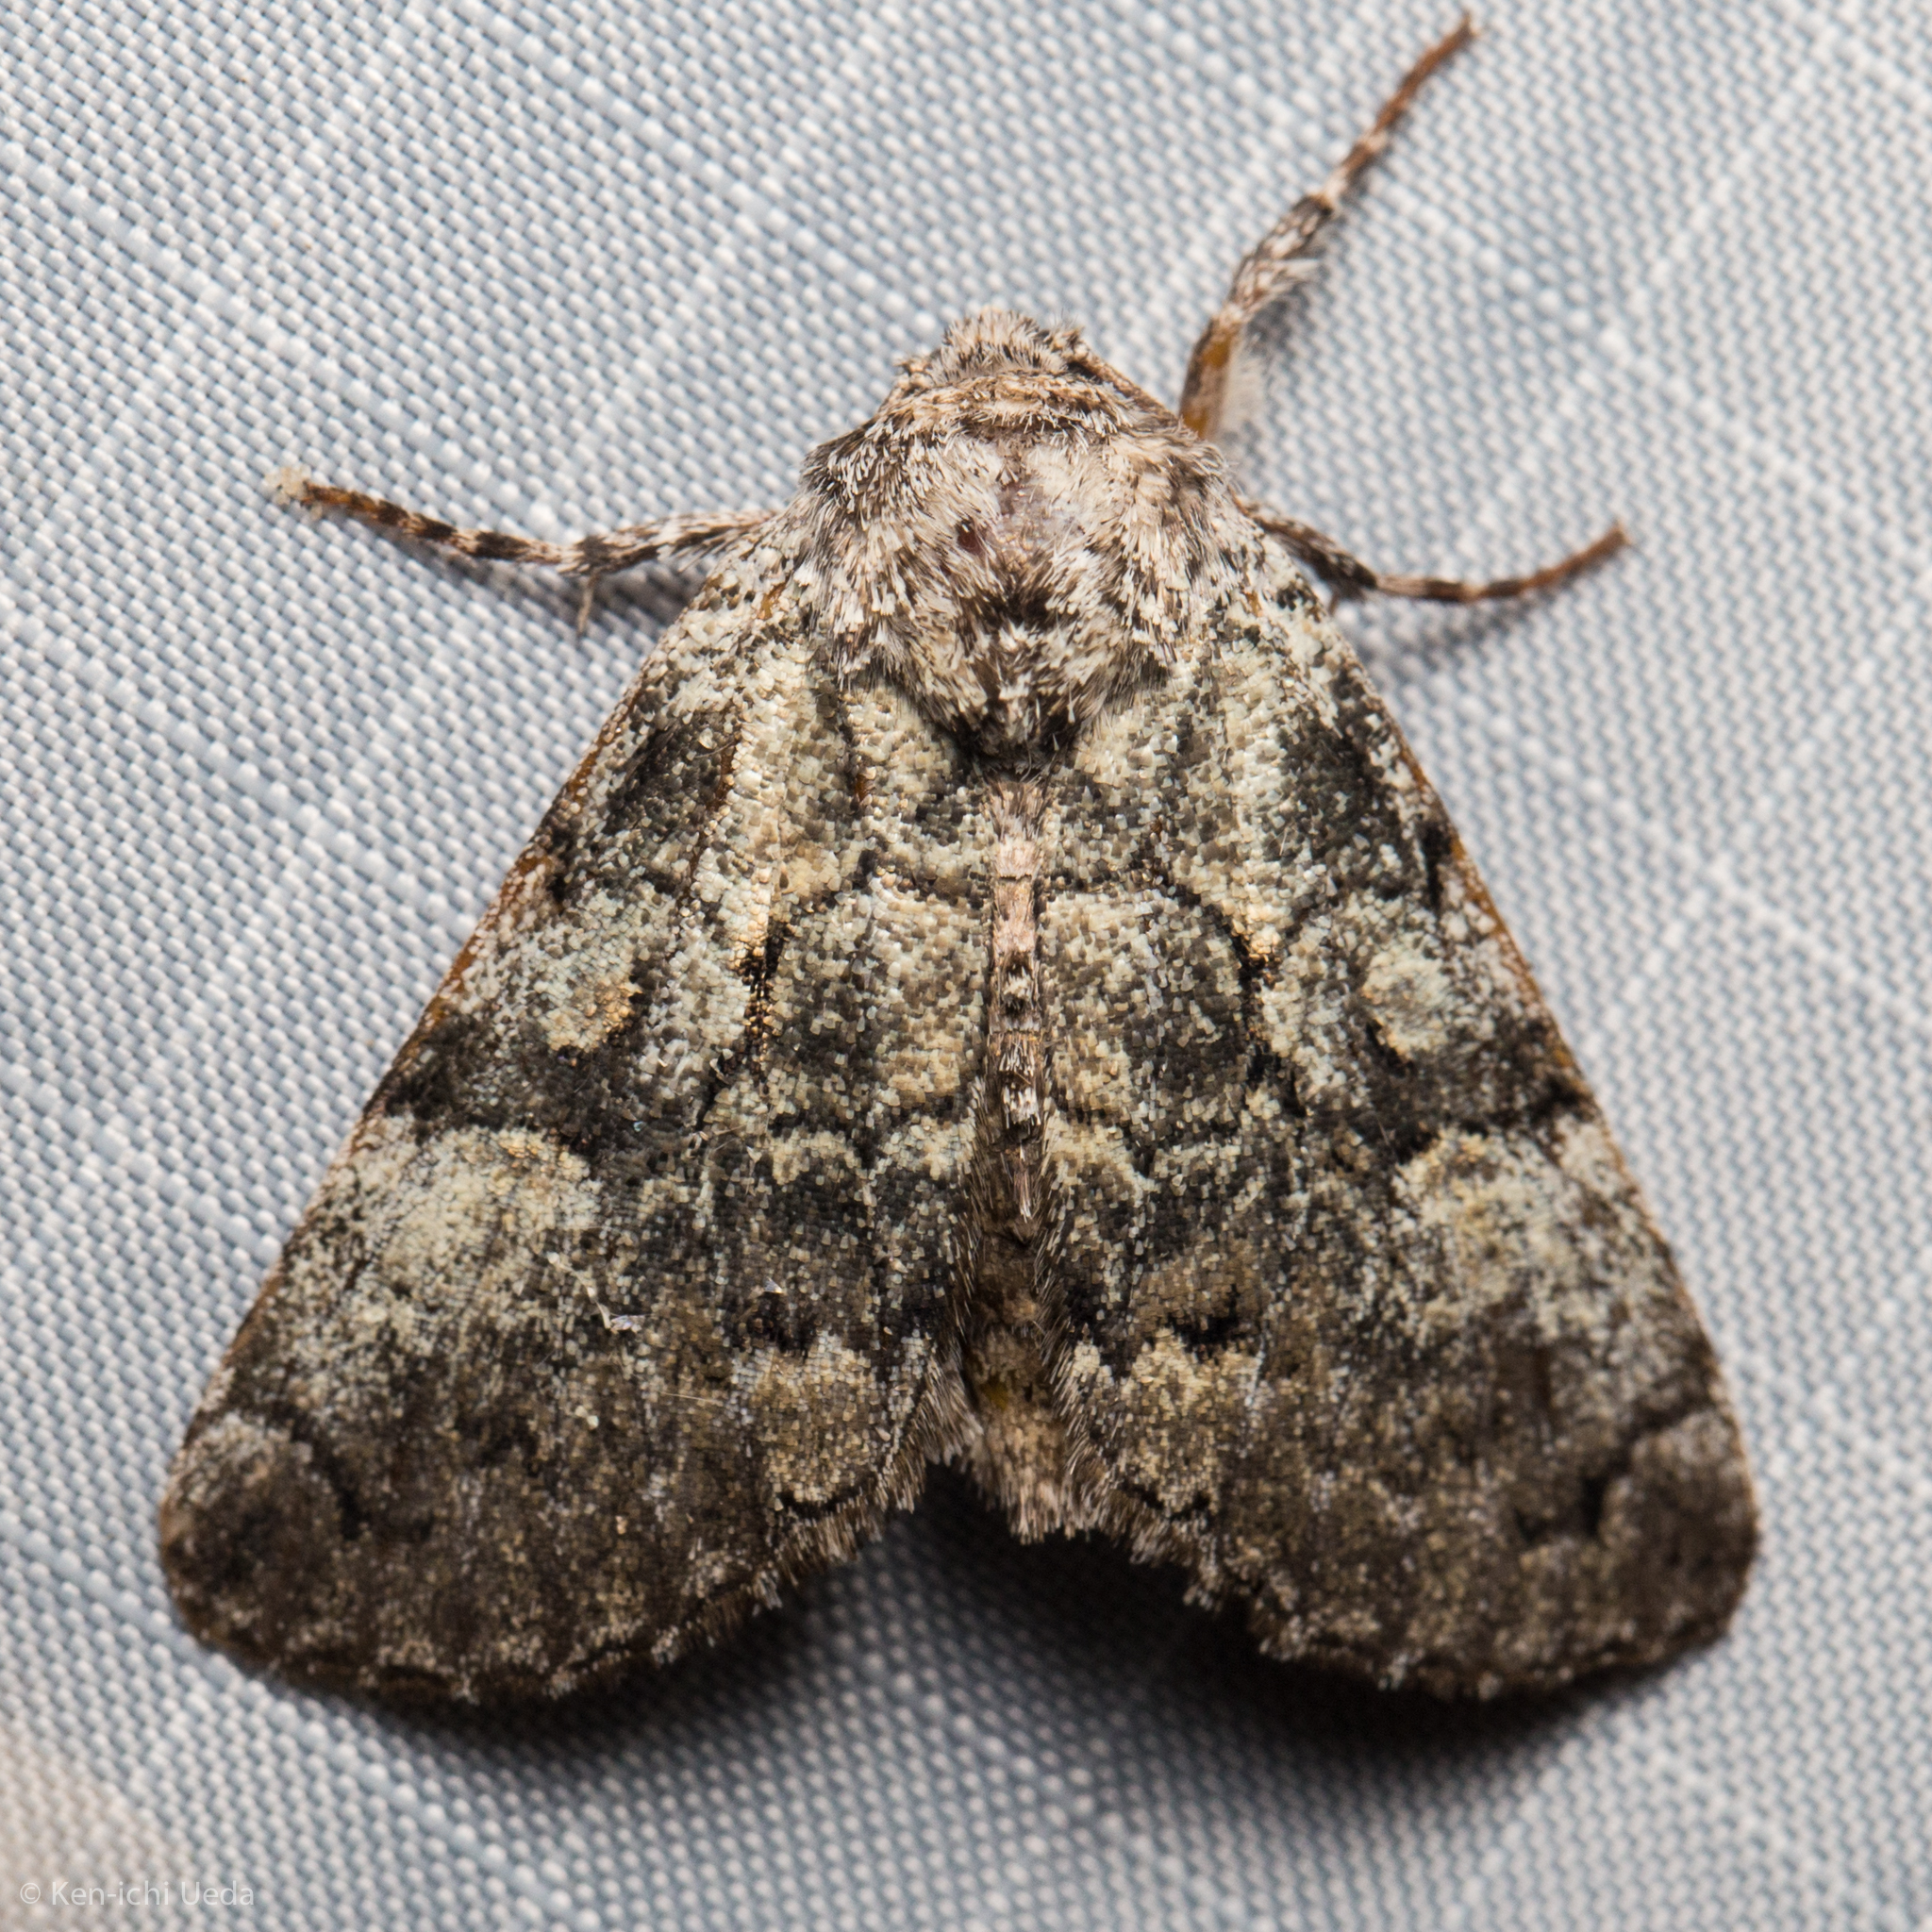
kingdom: Animalia
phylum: Arthropoda
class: Insecta
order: Lepidoptera
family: Noctuidae
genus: Charadra
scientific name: Charadra deridens
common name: Marbled tuffet
